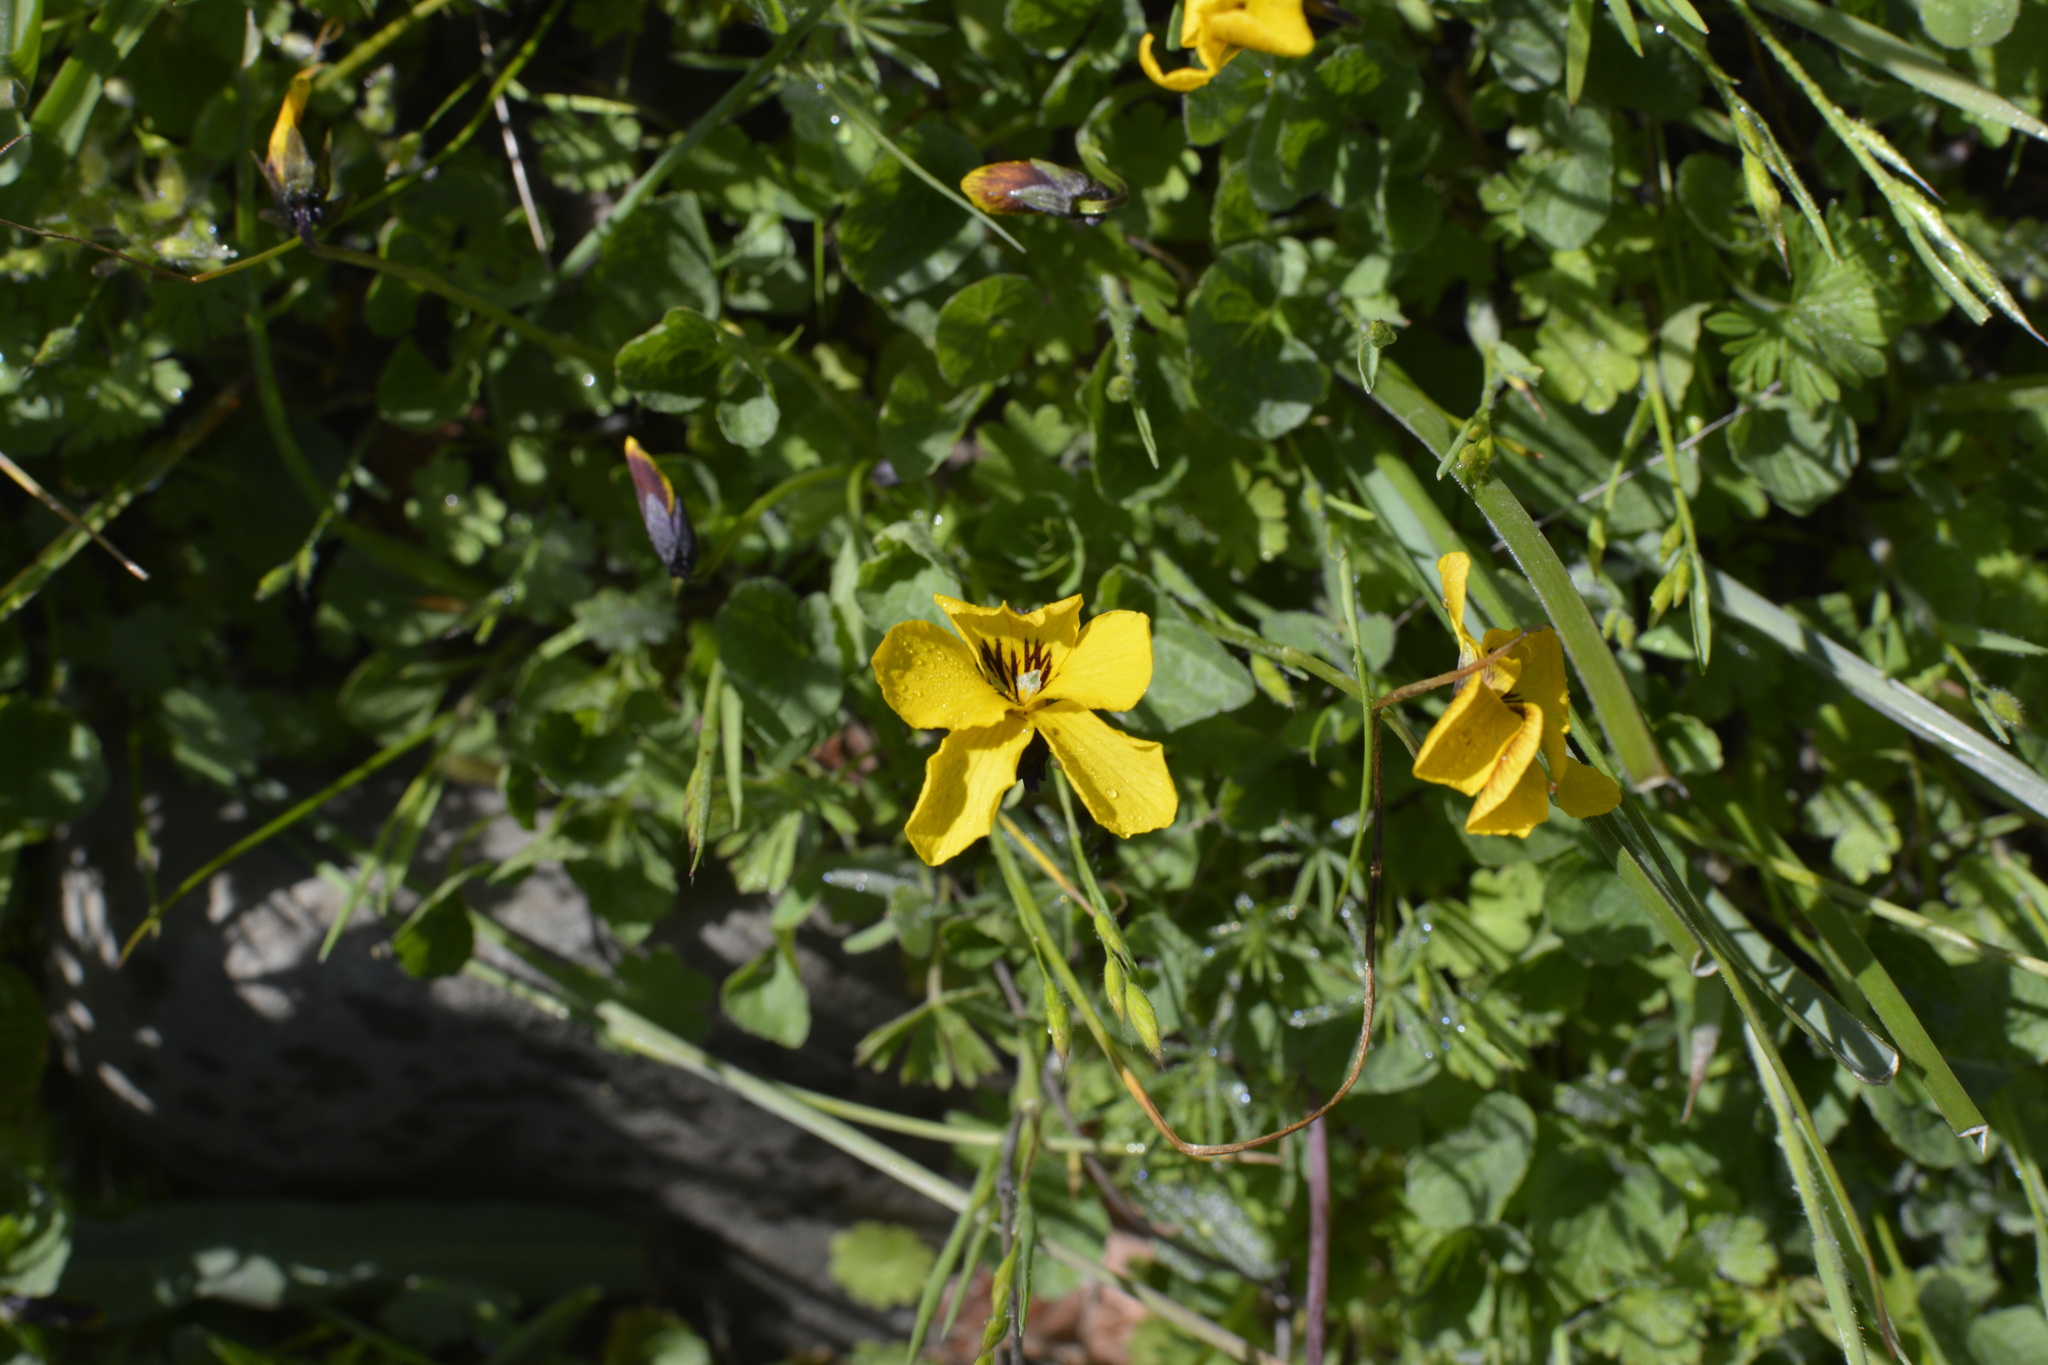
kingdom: Plantae
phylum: Tracheophyta
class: Magnoliopsida
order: Malpighiales
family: Violaceae
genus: Viola
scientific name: Viola pedunculata
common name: California golden violet
